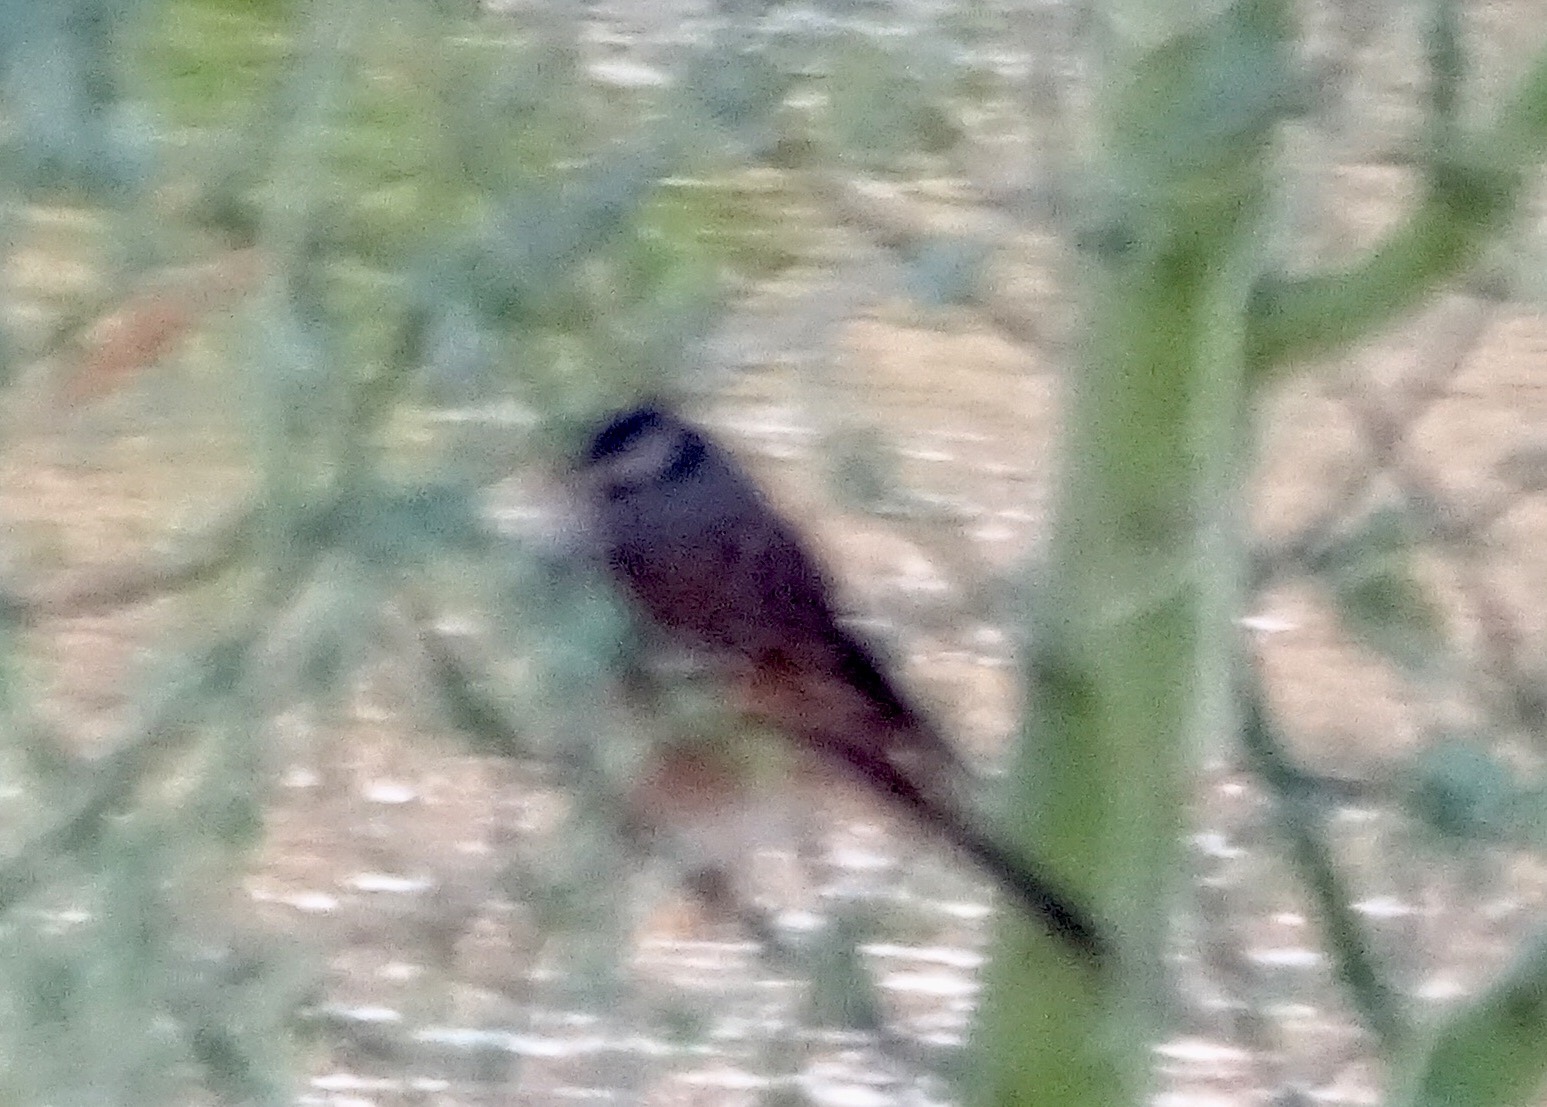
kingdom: Animalia
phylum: Chordata
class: Aves
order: Passeriformes
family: Passerellidae
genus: Zonotrichia
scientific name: Zonotrichia leucophrys
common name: White-crowned sparrow
